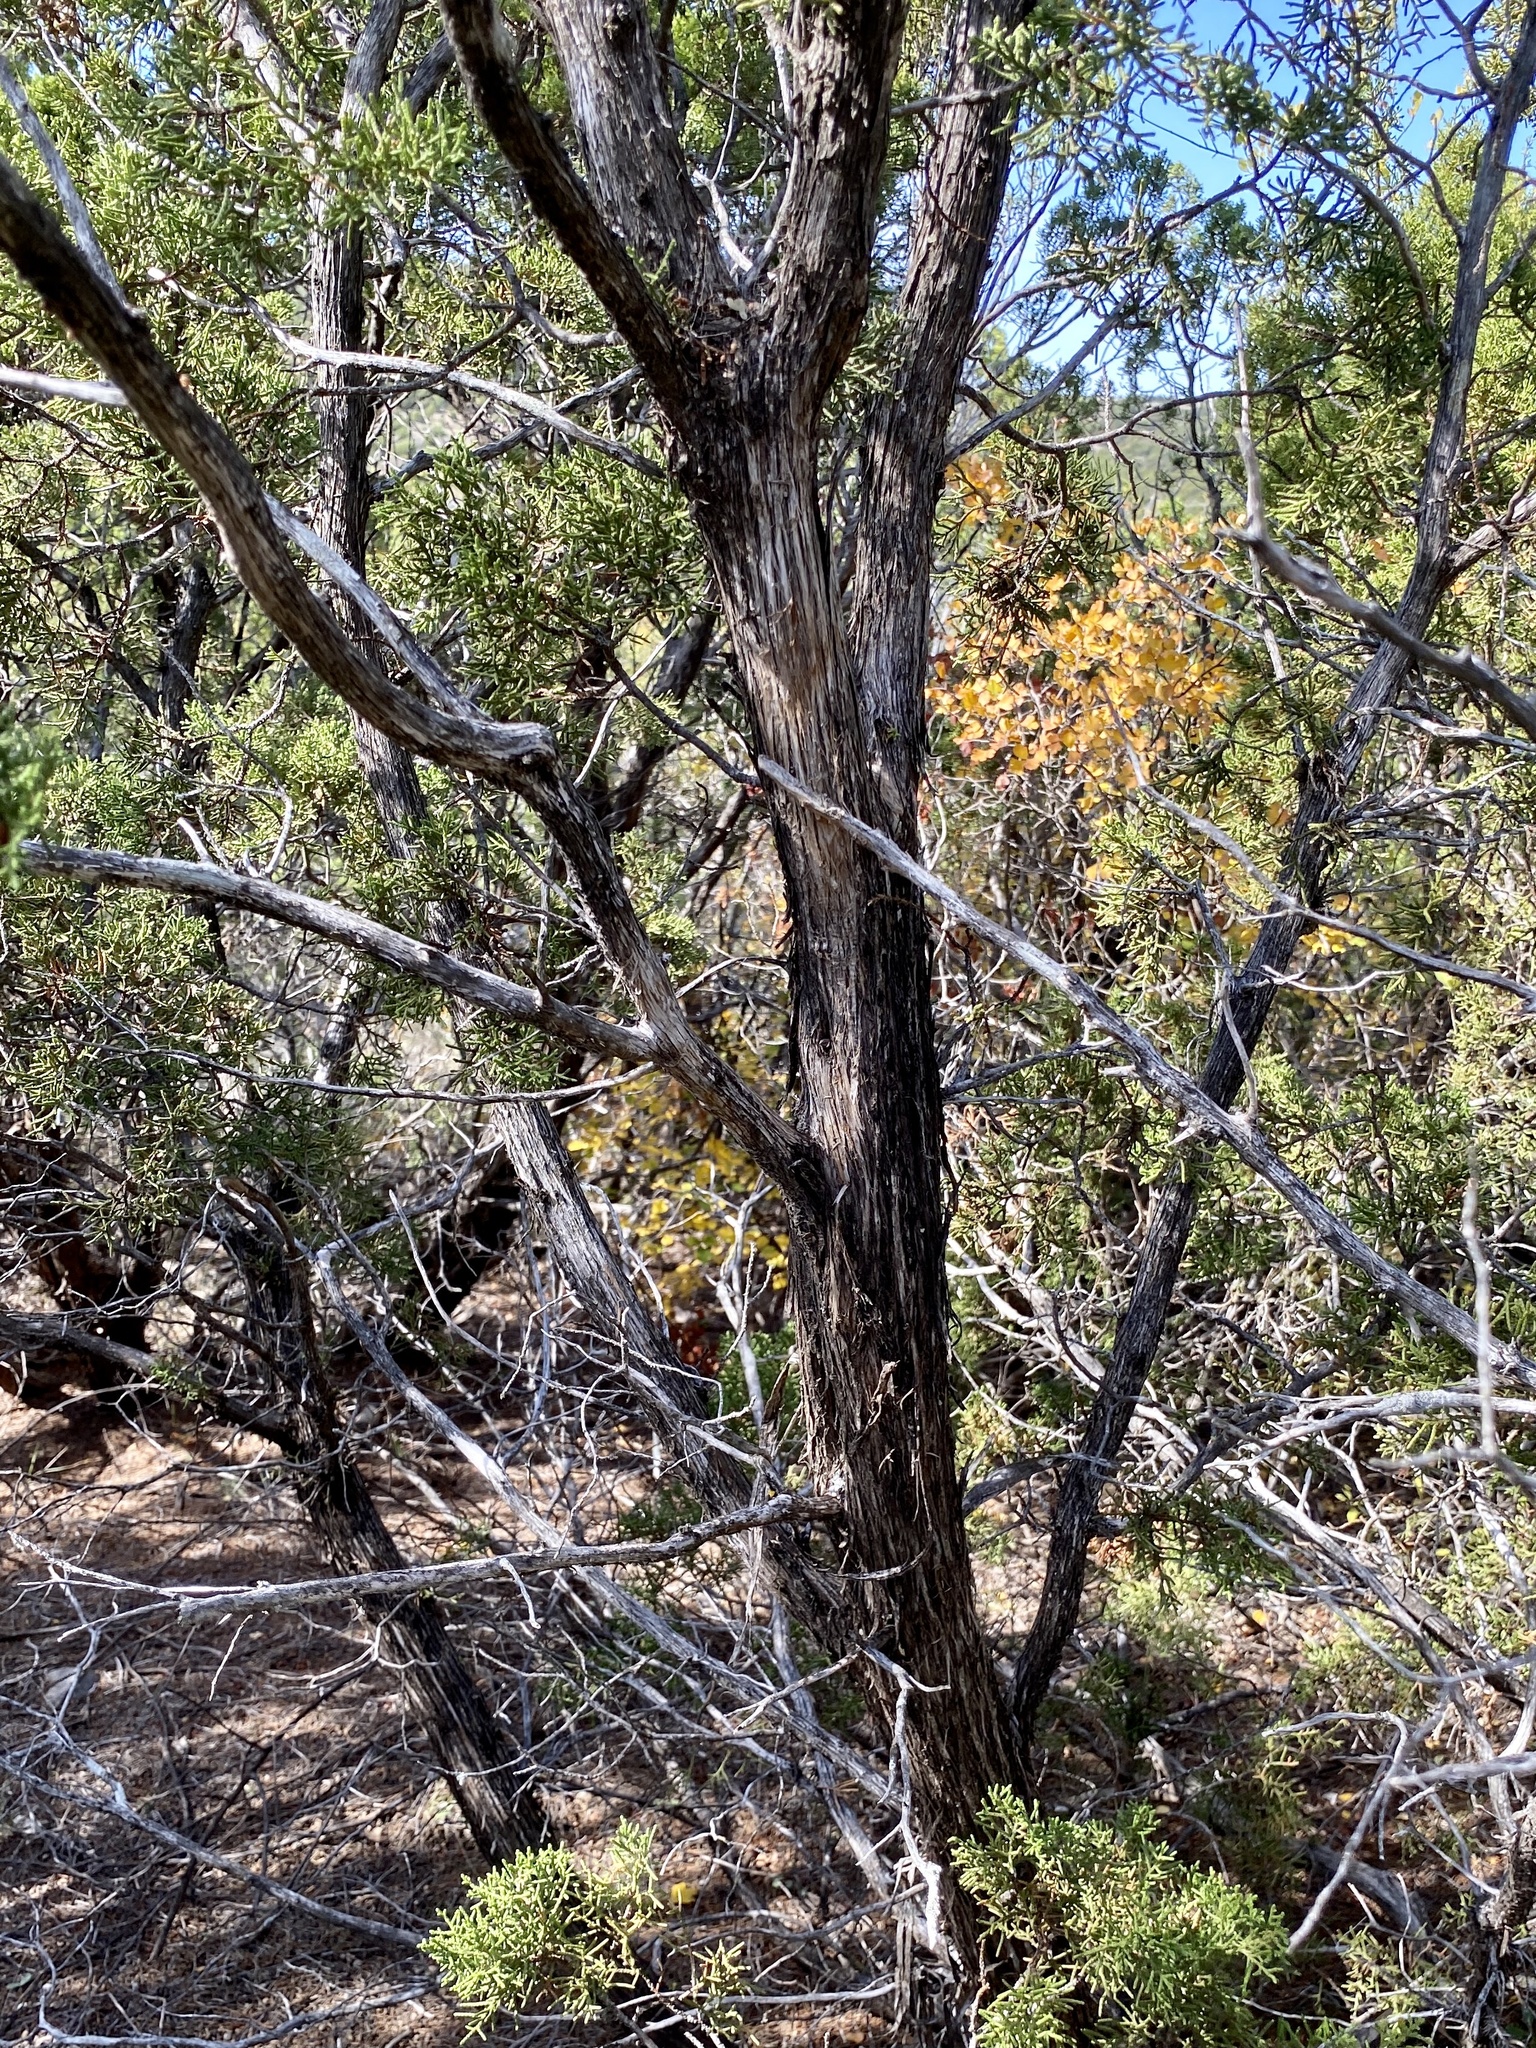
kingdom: Plantae
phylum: Tracheophyta
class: Pinopsida
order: Pinales
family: Cupressaceae
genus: Juniperus
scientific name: Juniperus pinchotii
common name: Pinchot juniper
